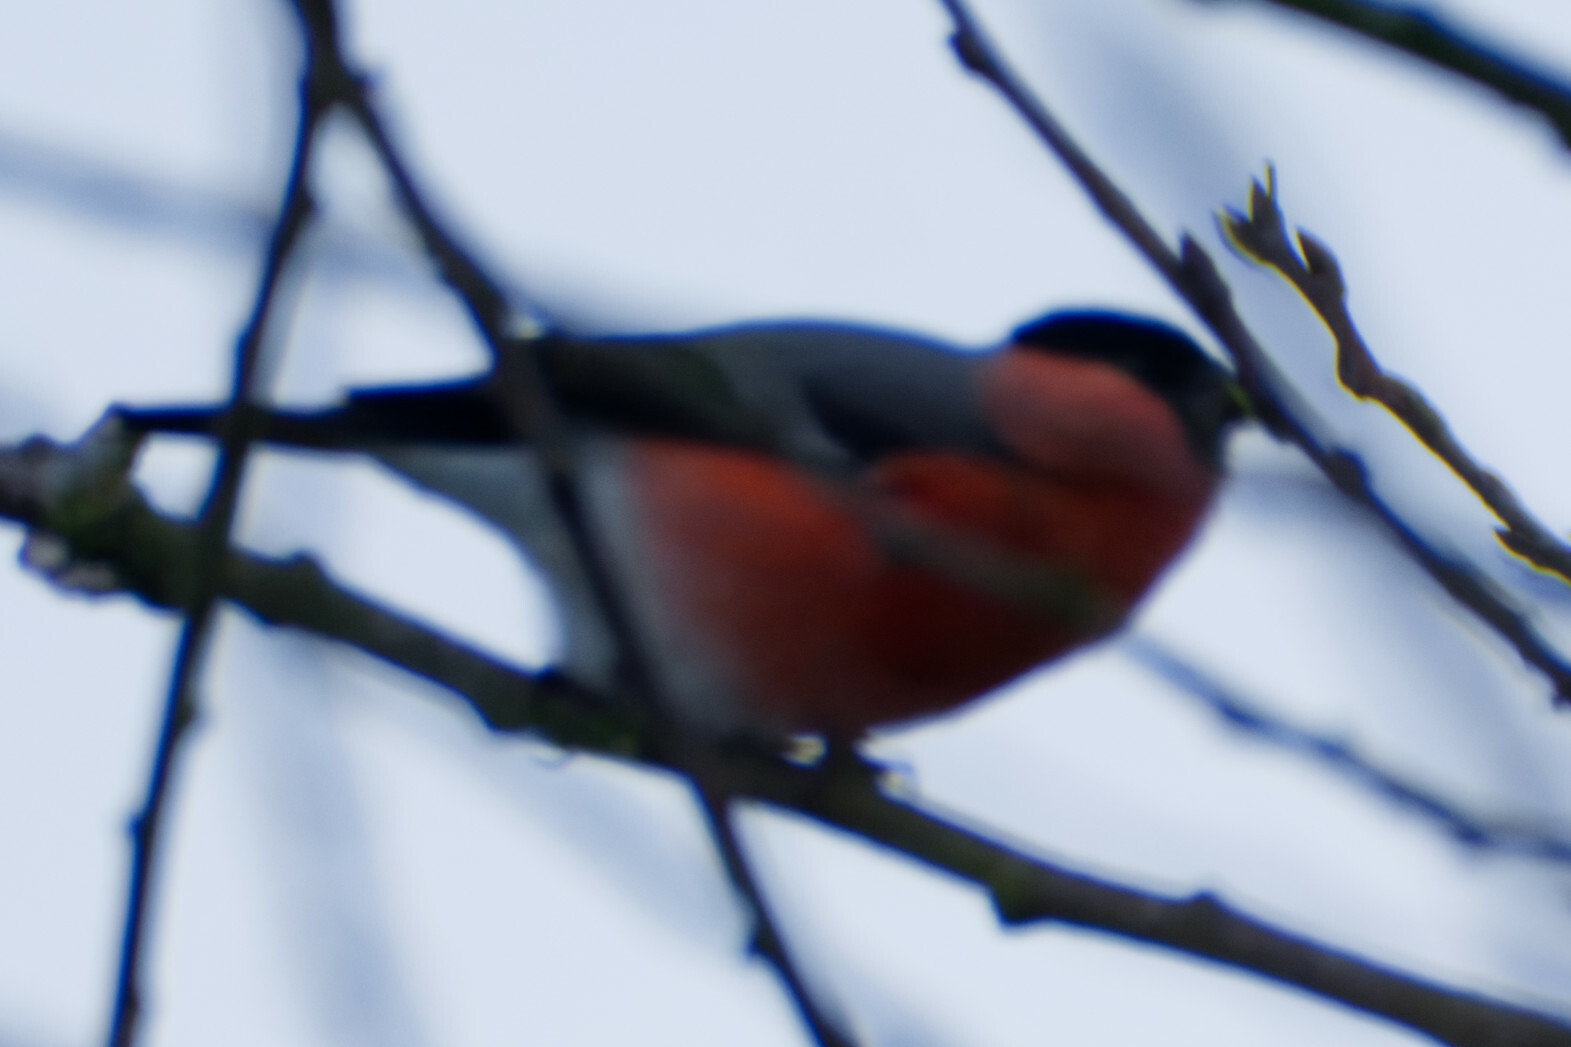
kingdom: Animalia
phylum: Chordata
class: Aves
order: Passeriformes
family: Fringillidae
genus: Pyrrhula
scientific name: Pyrrhula pyrrhula
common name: Eurasian bullfinch
